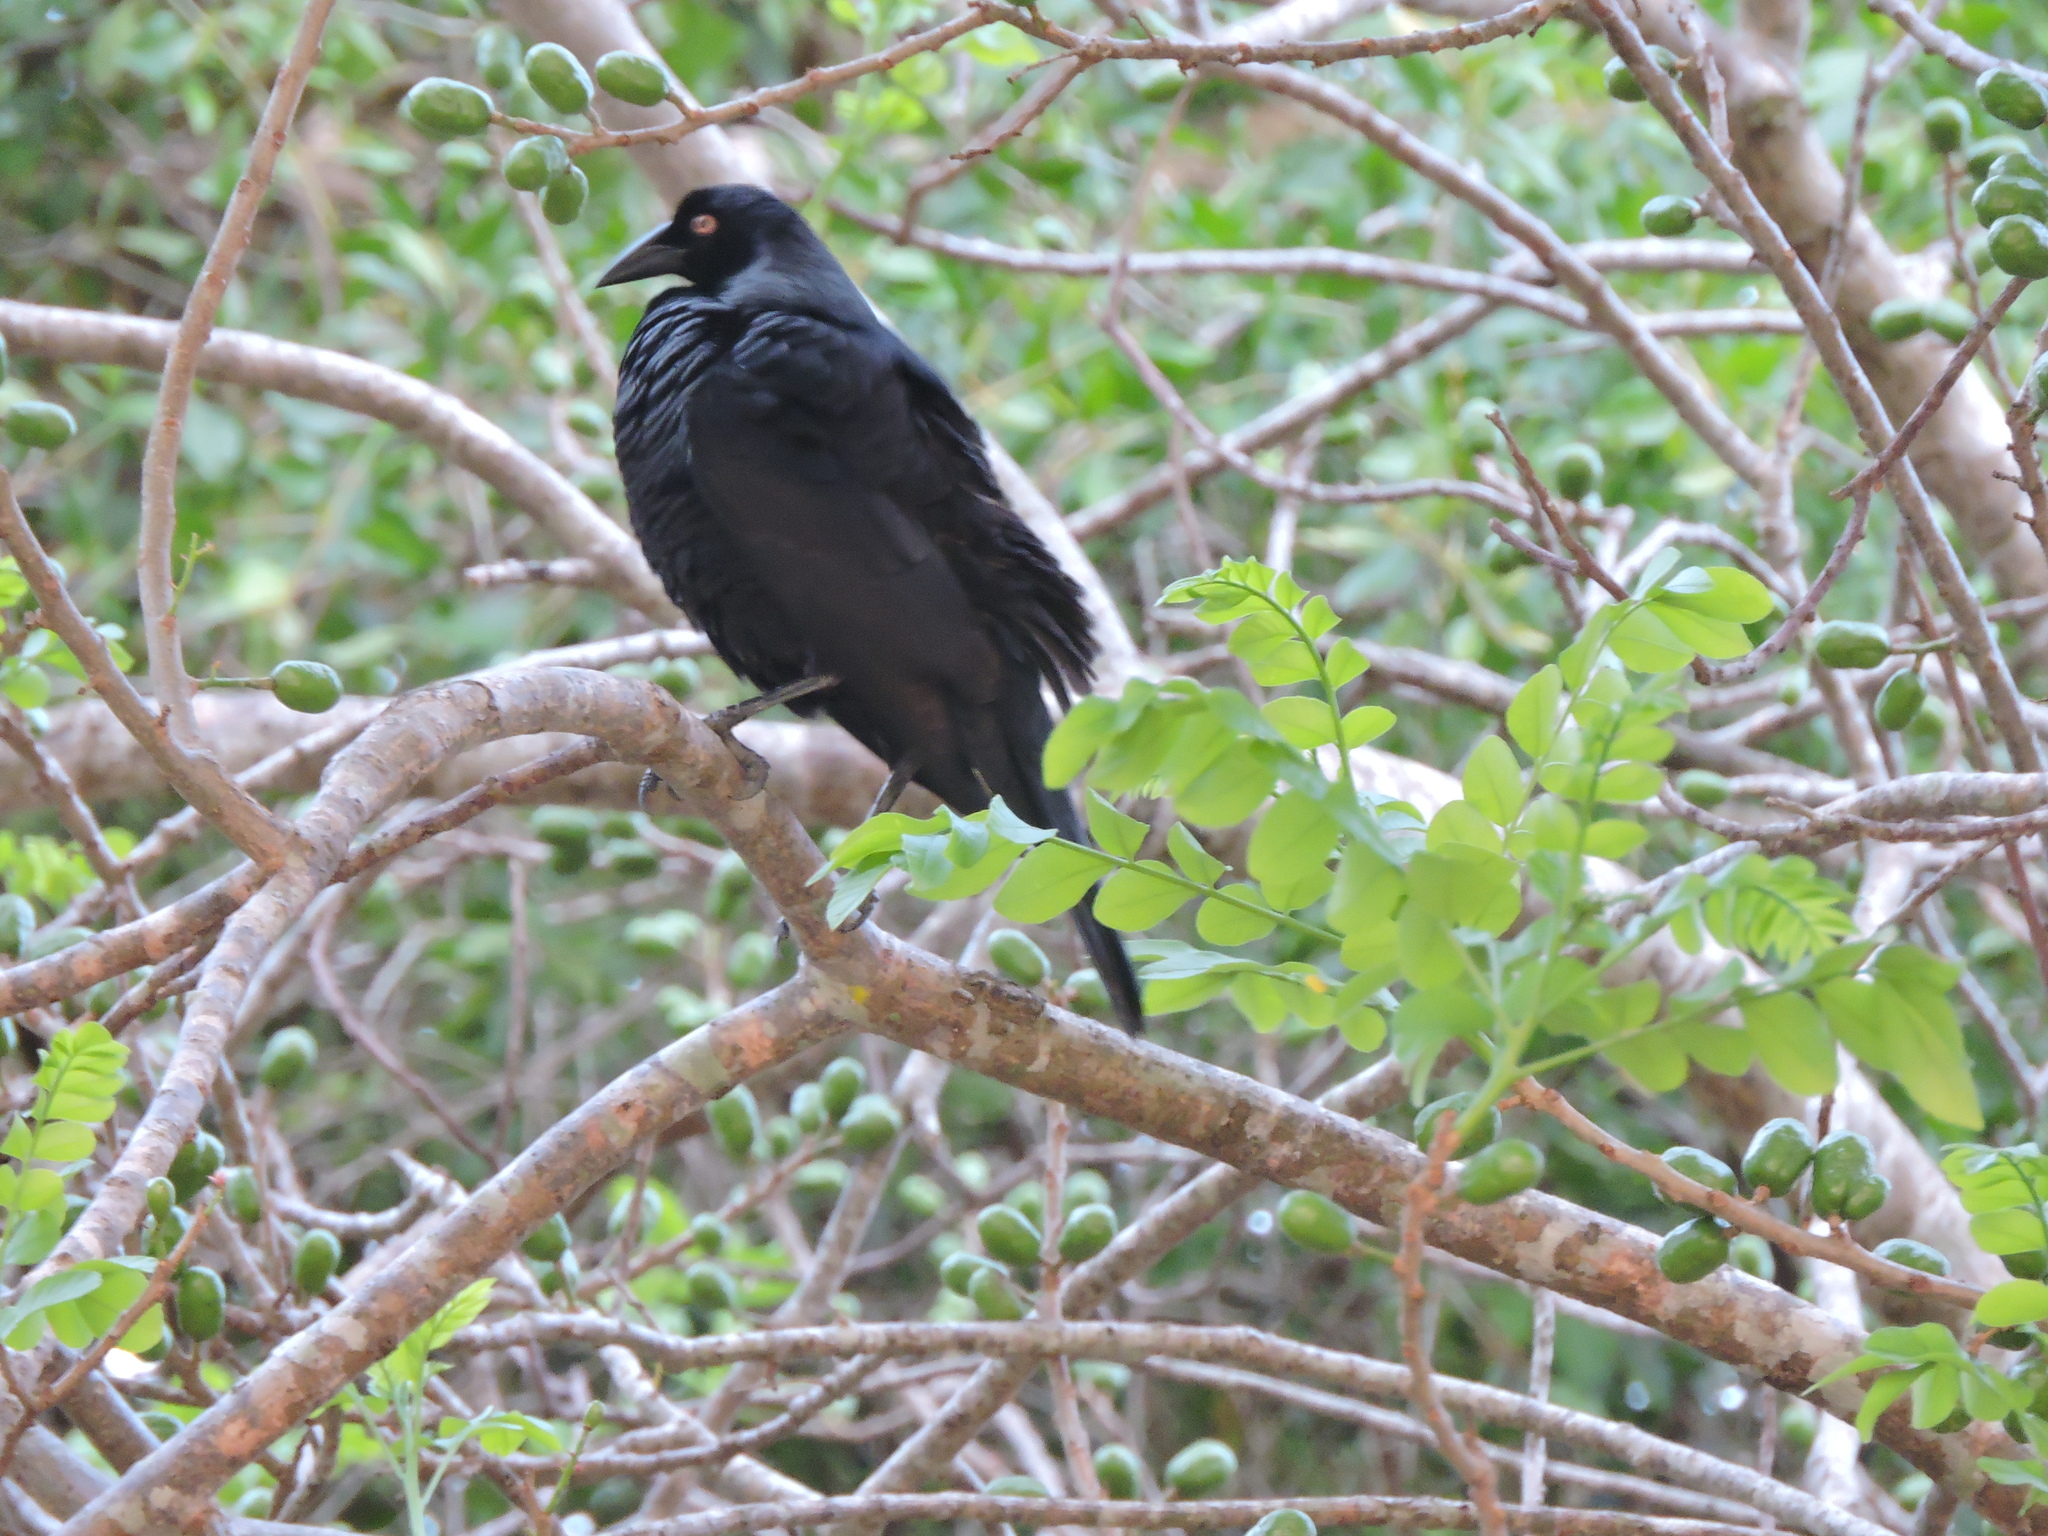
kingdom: Animalia
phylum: Chordata
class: Aves
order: Passeriformes
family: Icteridae
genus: Molothrus
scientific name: Molothrus oryzivorus
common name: Giant cowbird
